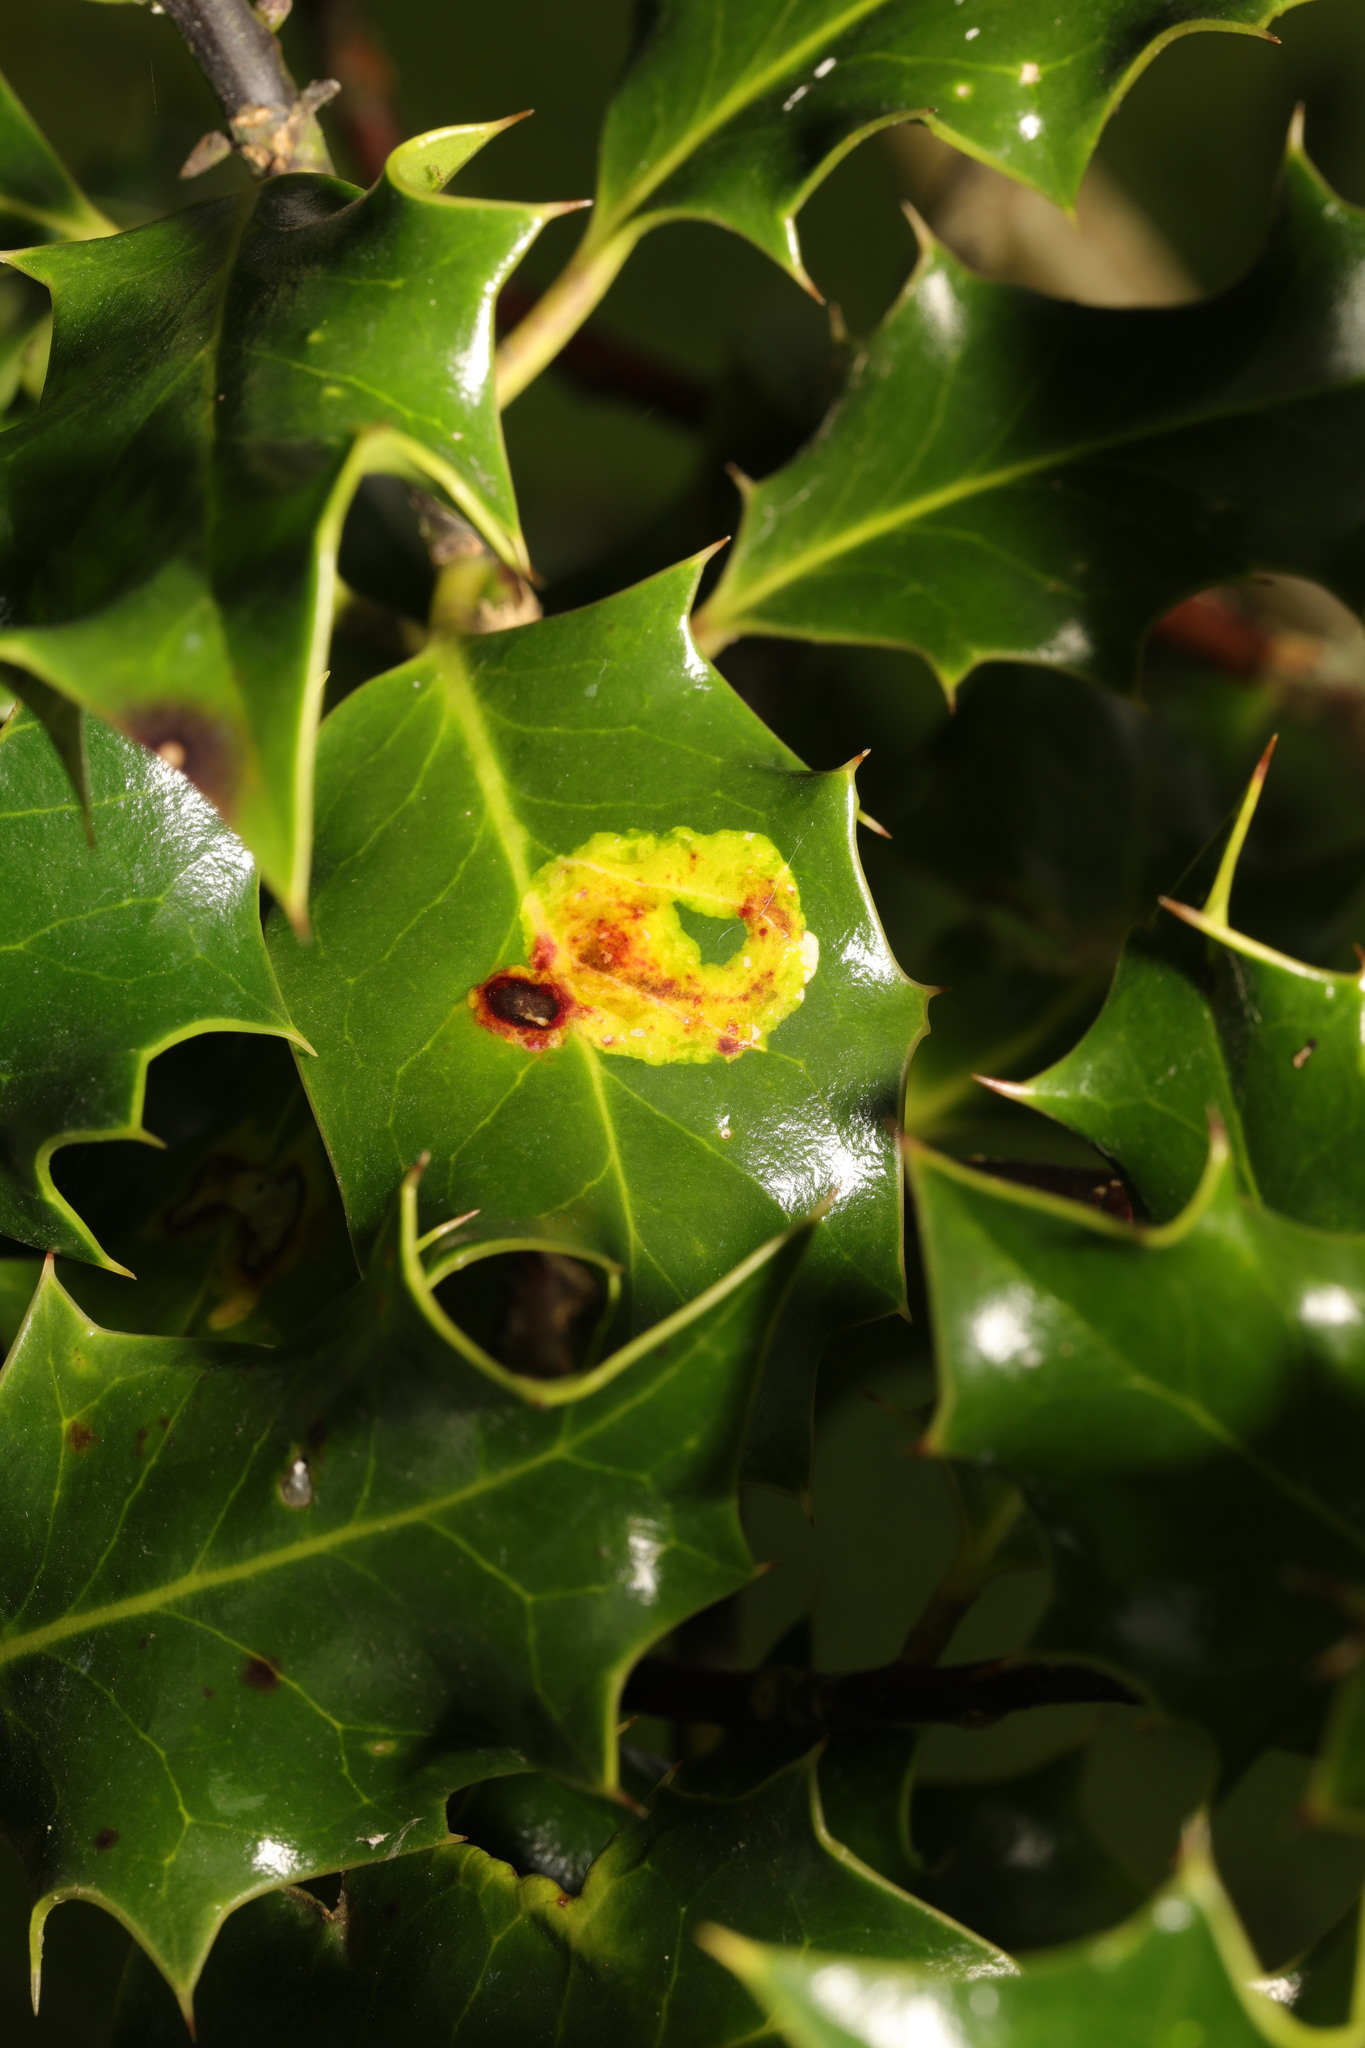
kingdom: Animalia
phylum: Arthropoda
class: Insecta
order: Diptera
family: Agromyzidae
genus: Phytomyza
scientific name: Phytomyza ilicis
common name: Holly leafminer
